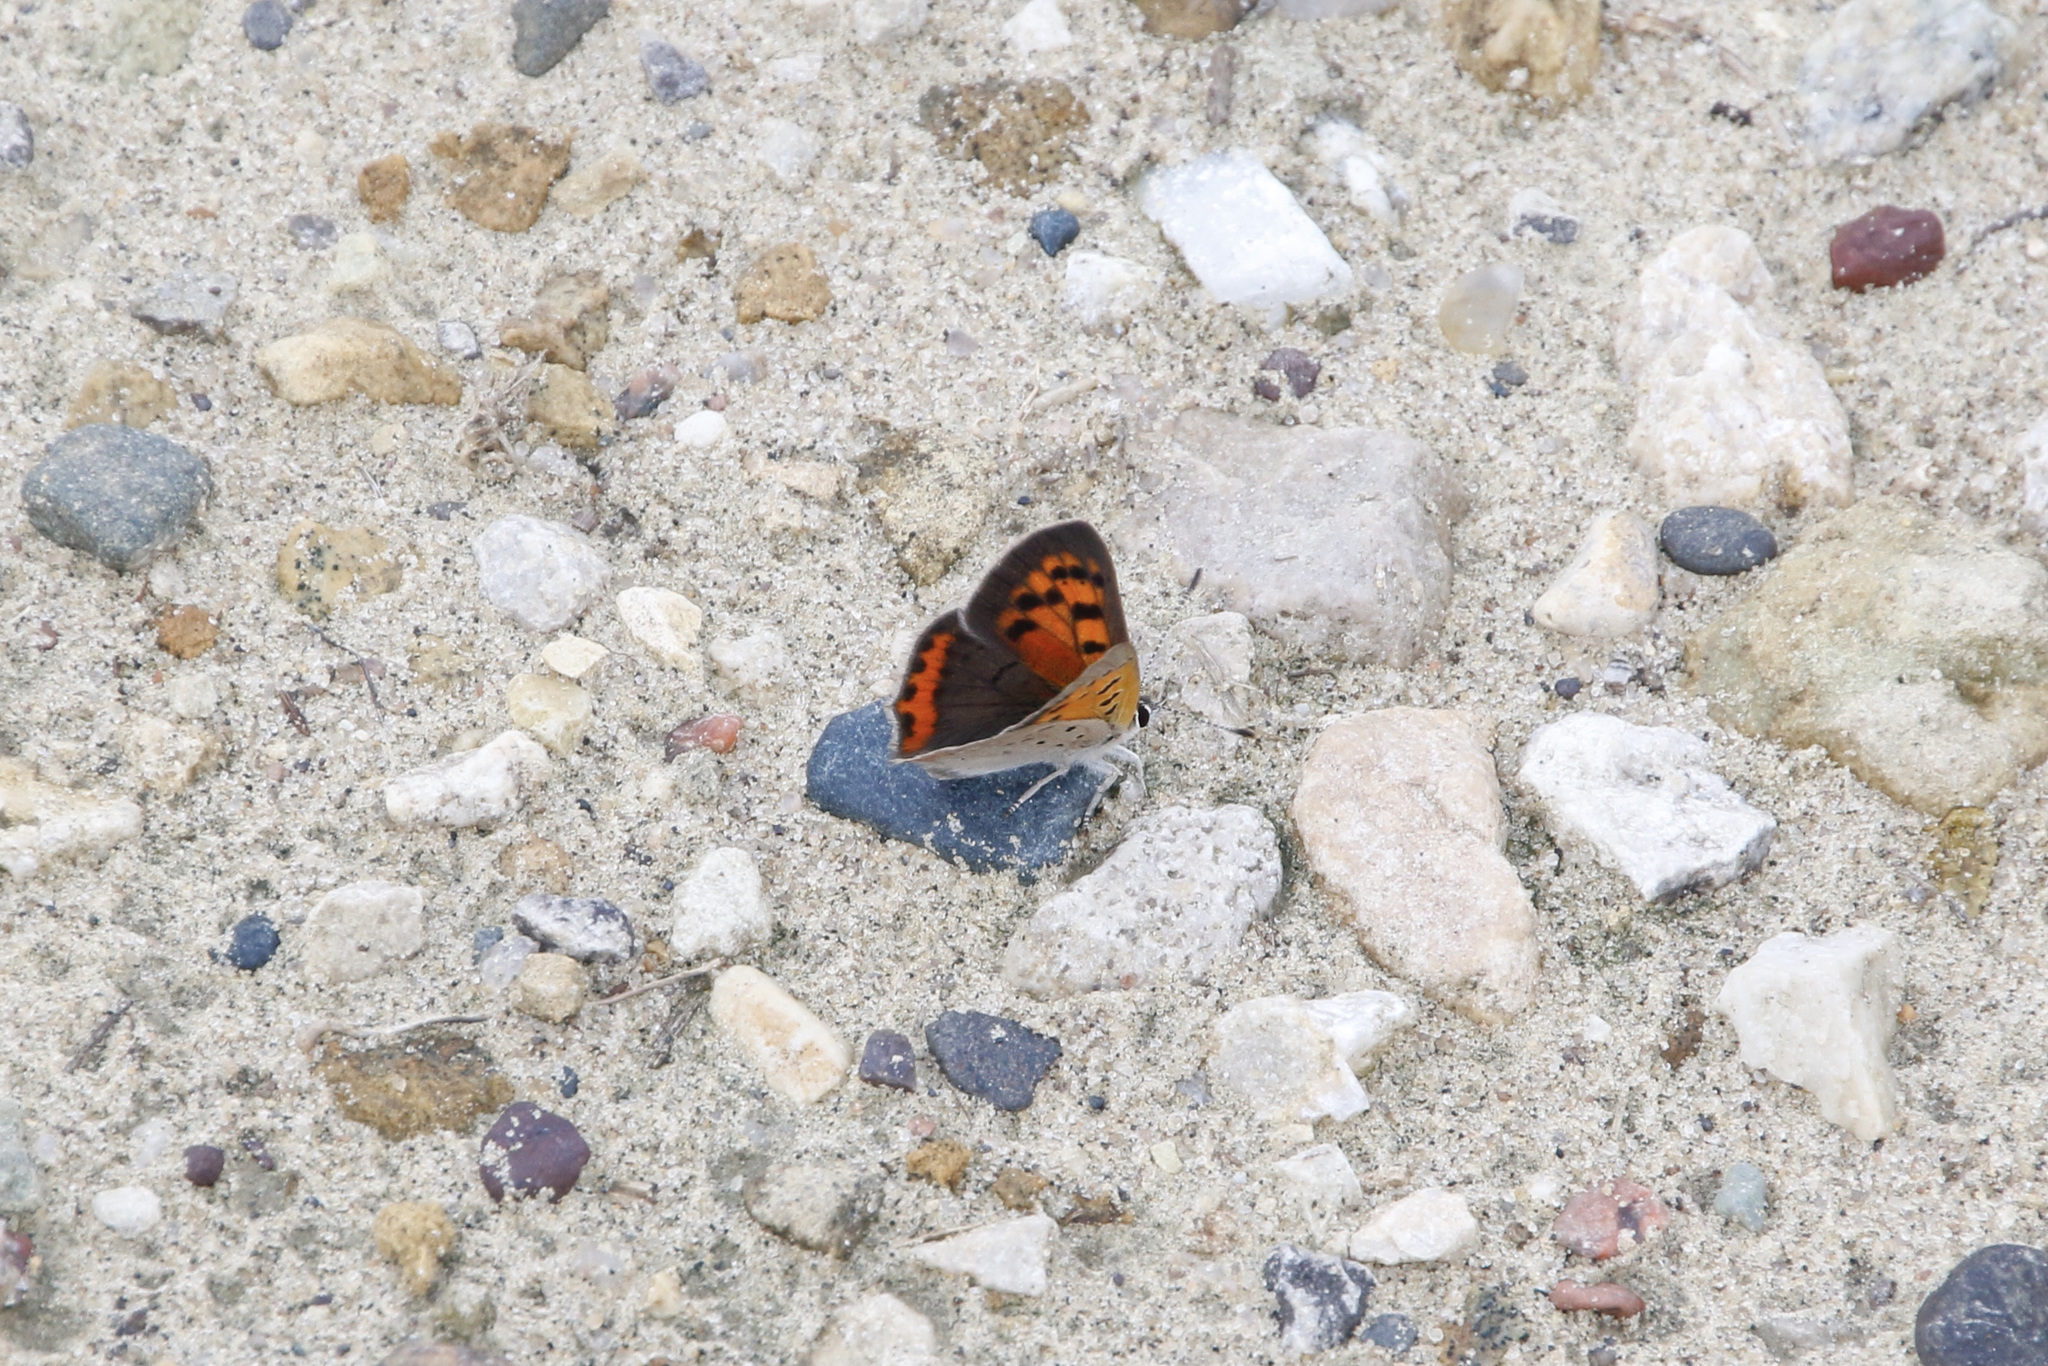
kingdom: Animalia
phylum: Arthropoda
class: Insecta
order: Lepidoptera
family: Lycaenidae
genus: Lycaena
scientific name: Lycaena hypophlaeas
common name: American copper
